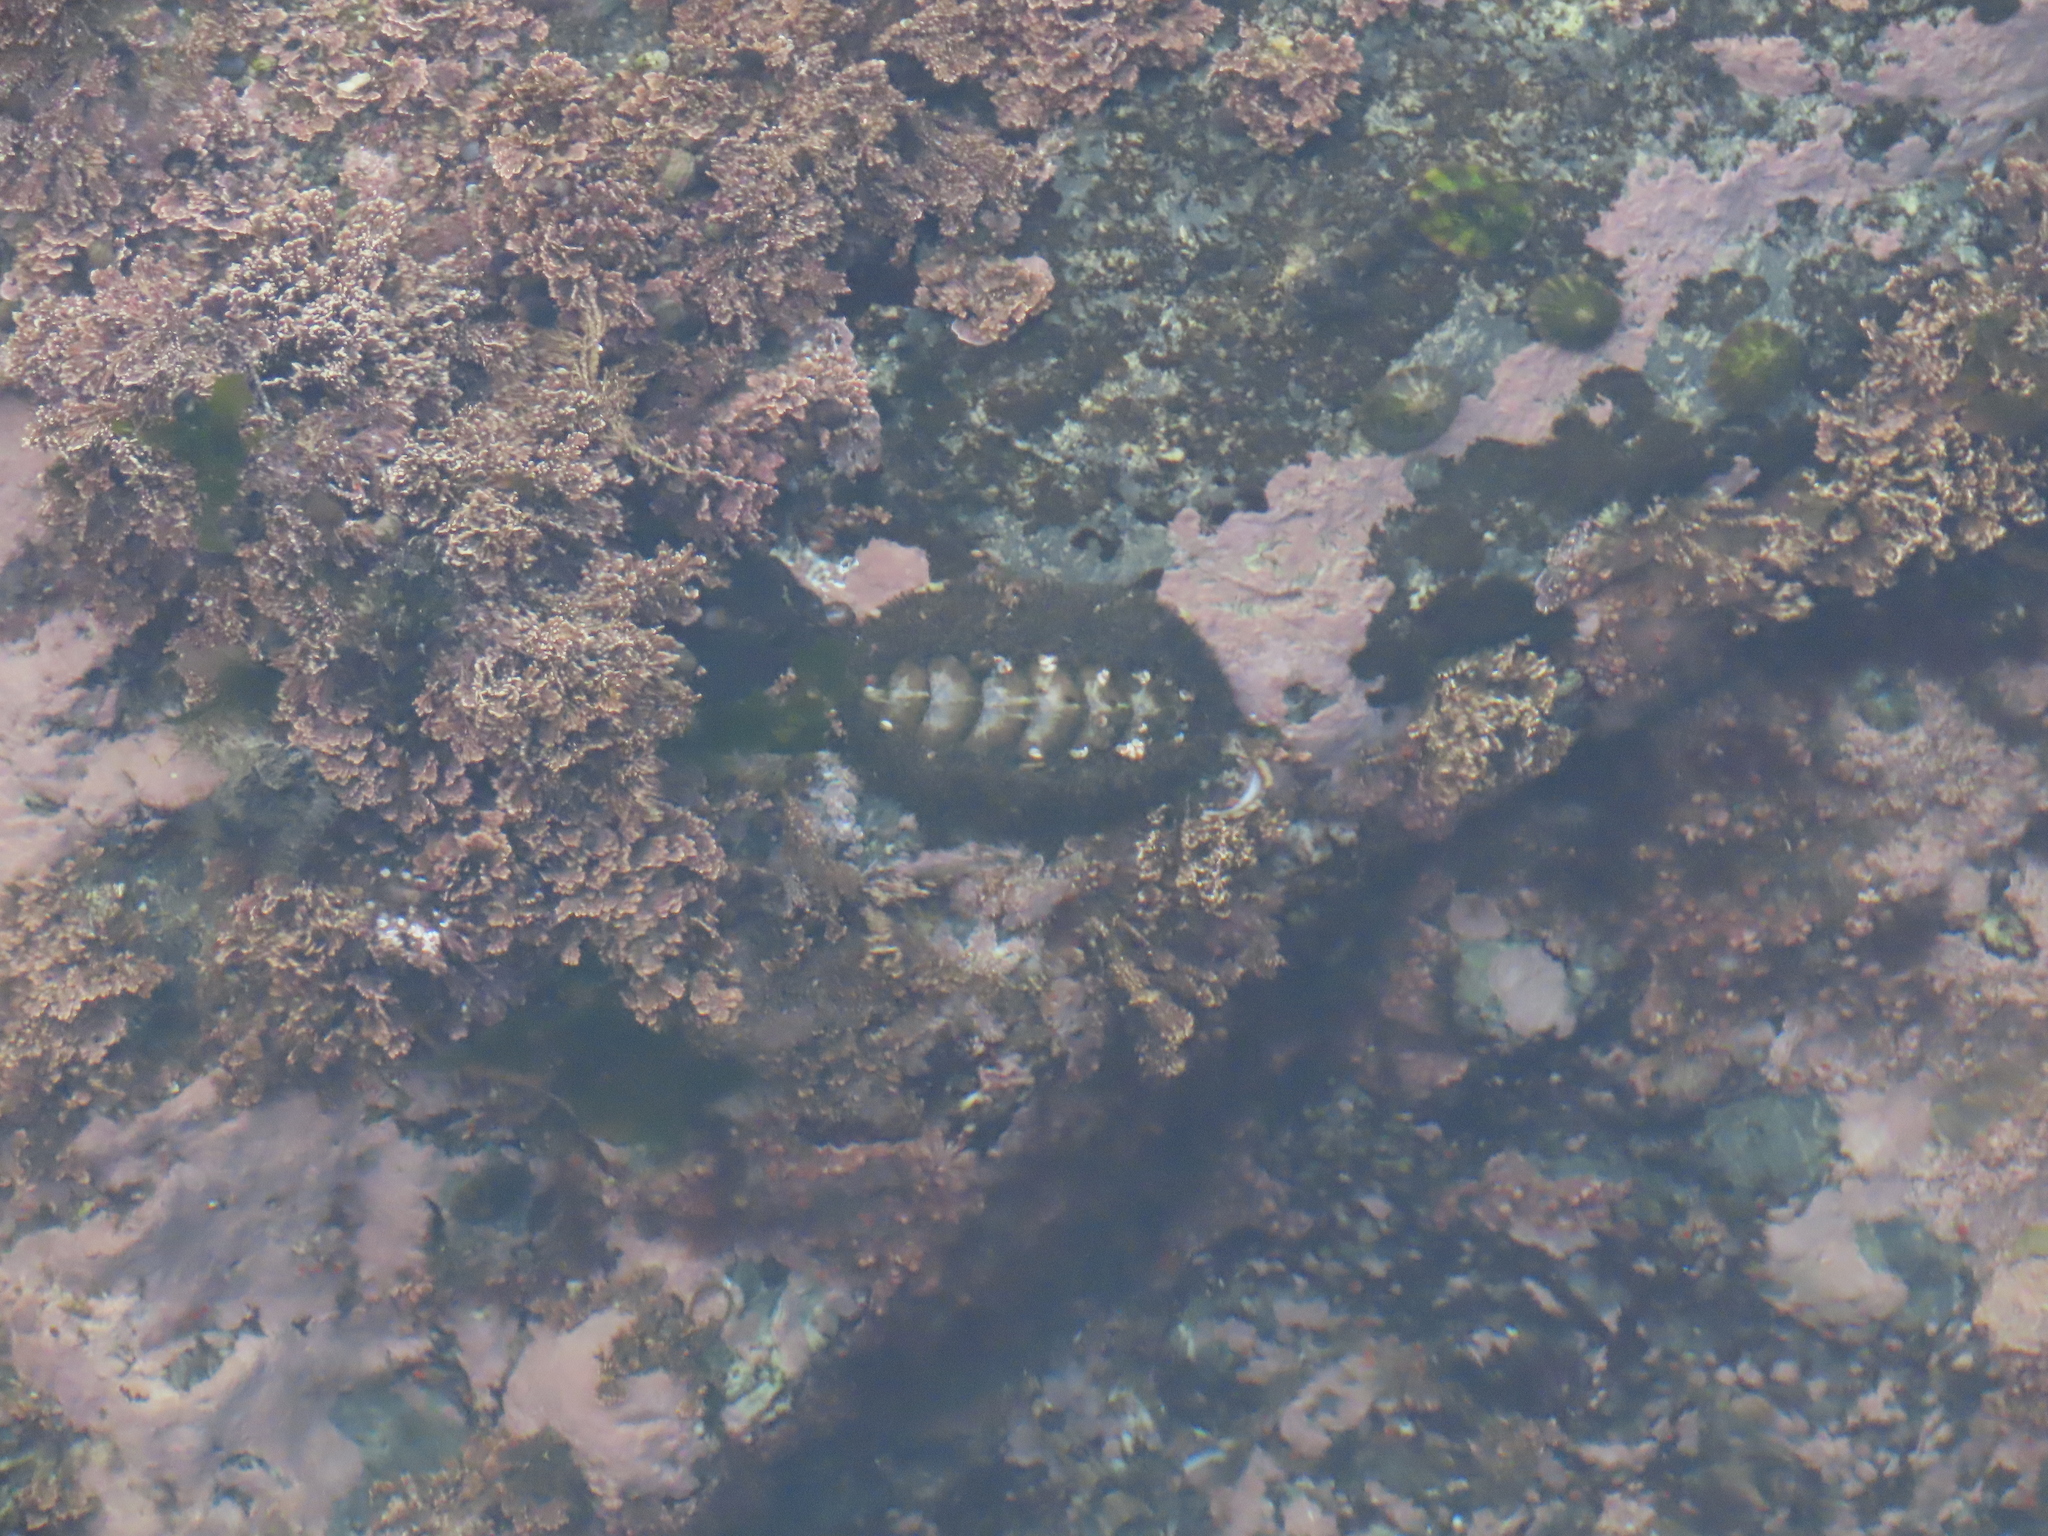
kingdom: Animalia
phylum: Mollusca
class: Polyplacophora
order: Chitonida
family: Mopaliidae
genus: Mopalia
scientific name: Mopalia muscosa
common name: Mossy chiton
